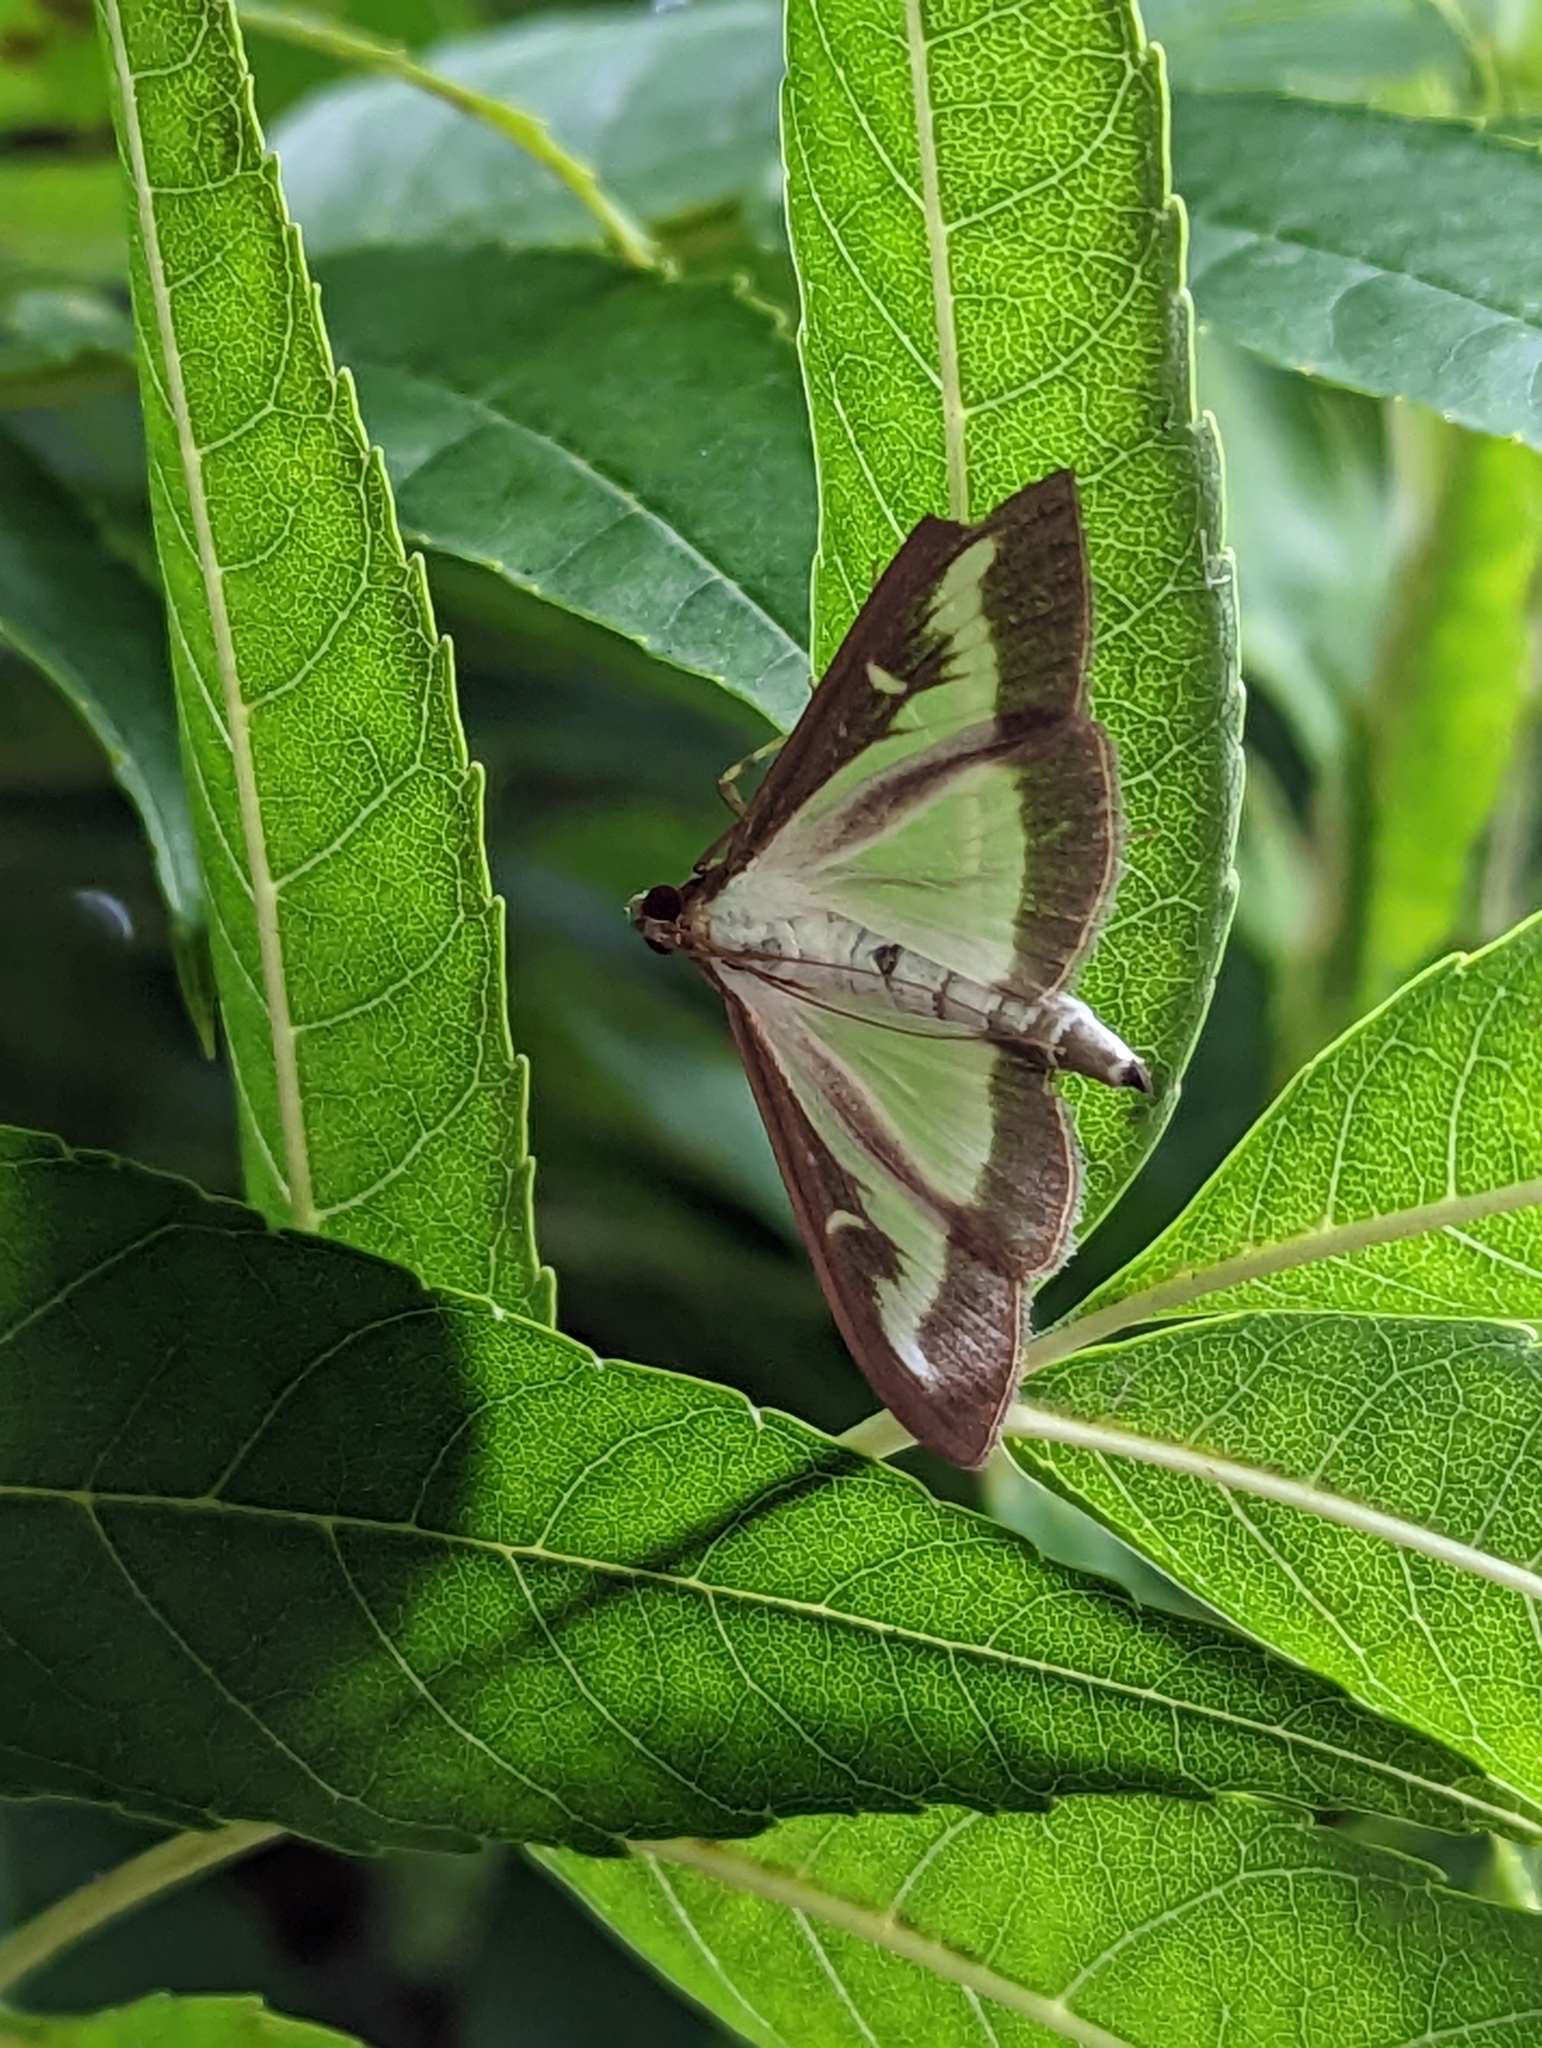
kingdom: Animalia
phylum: Arthropoda
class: Insecta
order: Lepidoptera
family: Crambidae
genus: Cydalima
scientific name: Cydalima perspectalis
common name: Box tree moth
